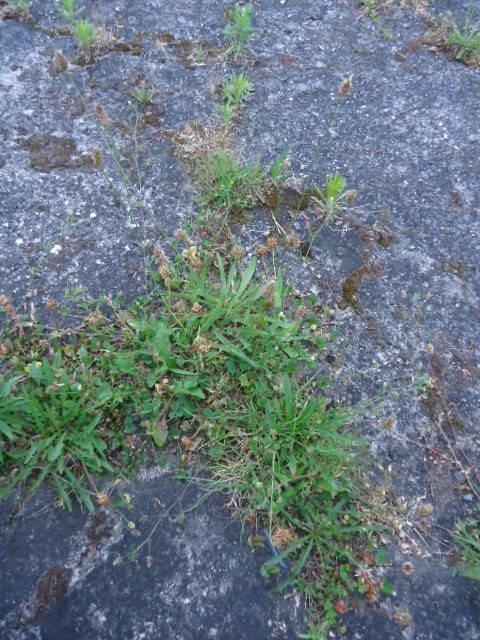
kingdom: Plantae
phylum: Tracheophyta
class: Magnoliopsida
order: Lamiales
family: Plantaginaceae
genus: Plantago
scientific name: Plantago lanceolata
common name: Ribwort plantain
